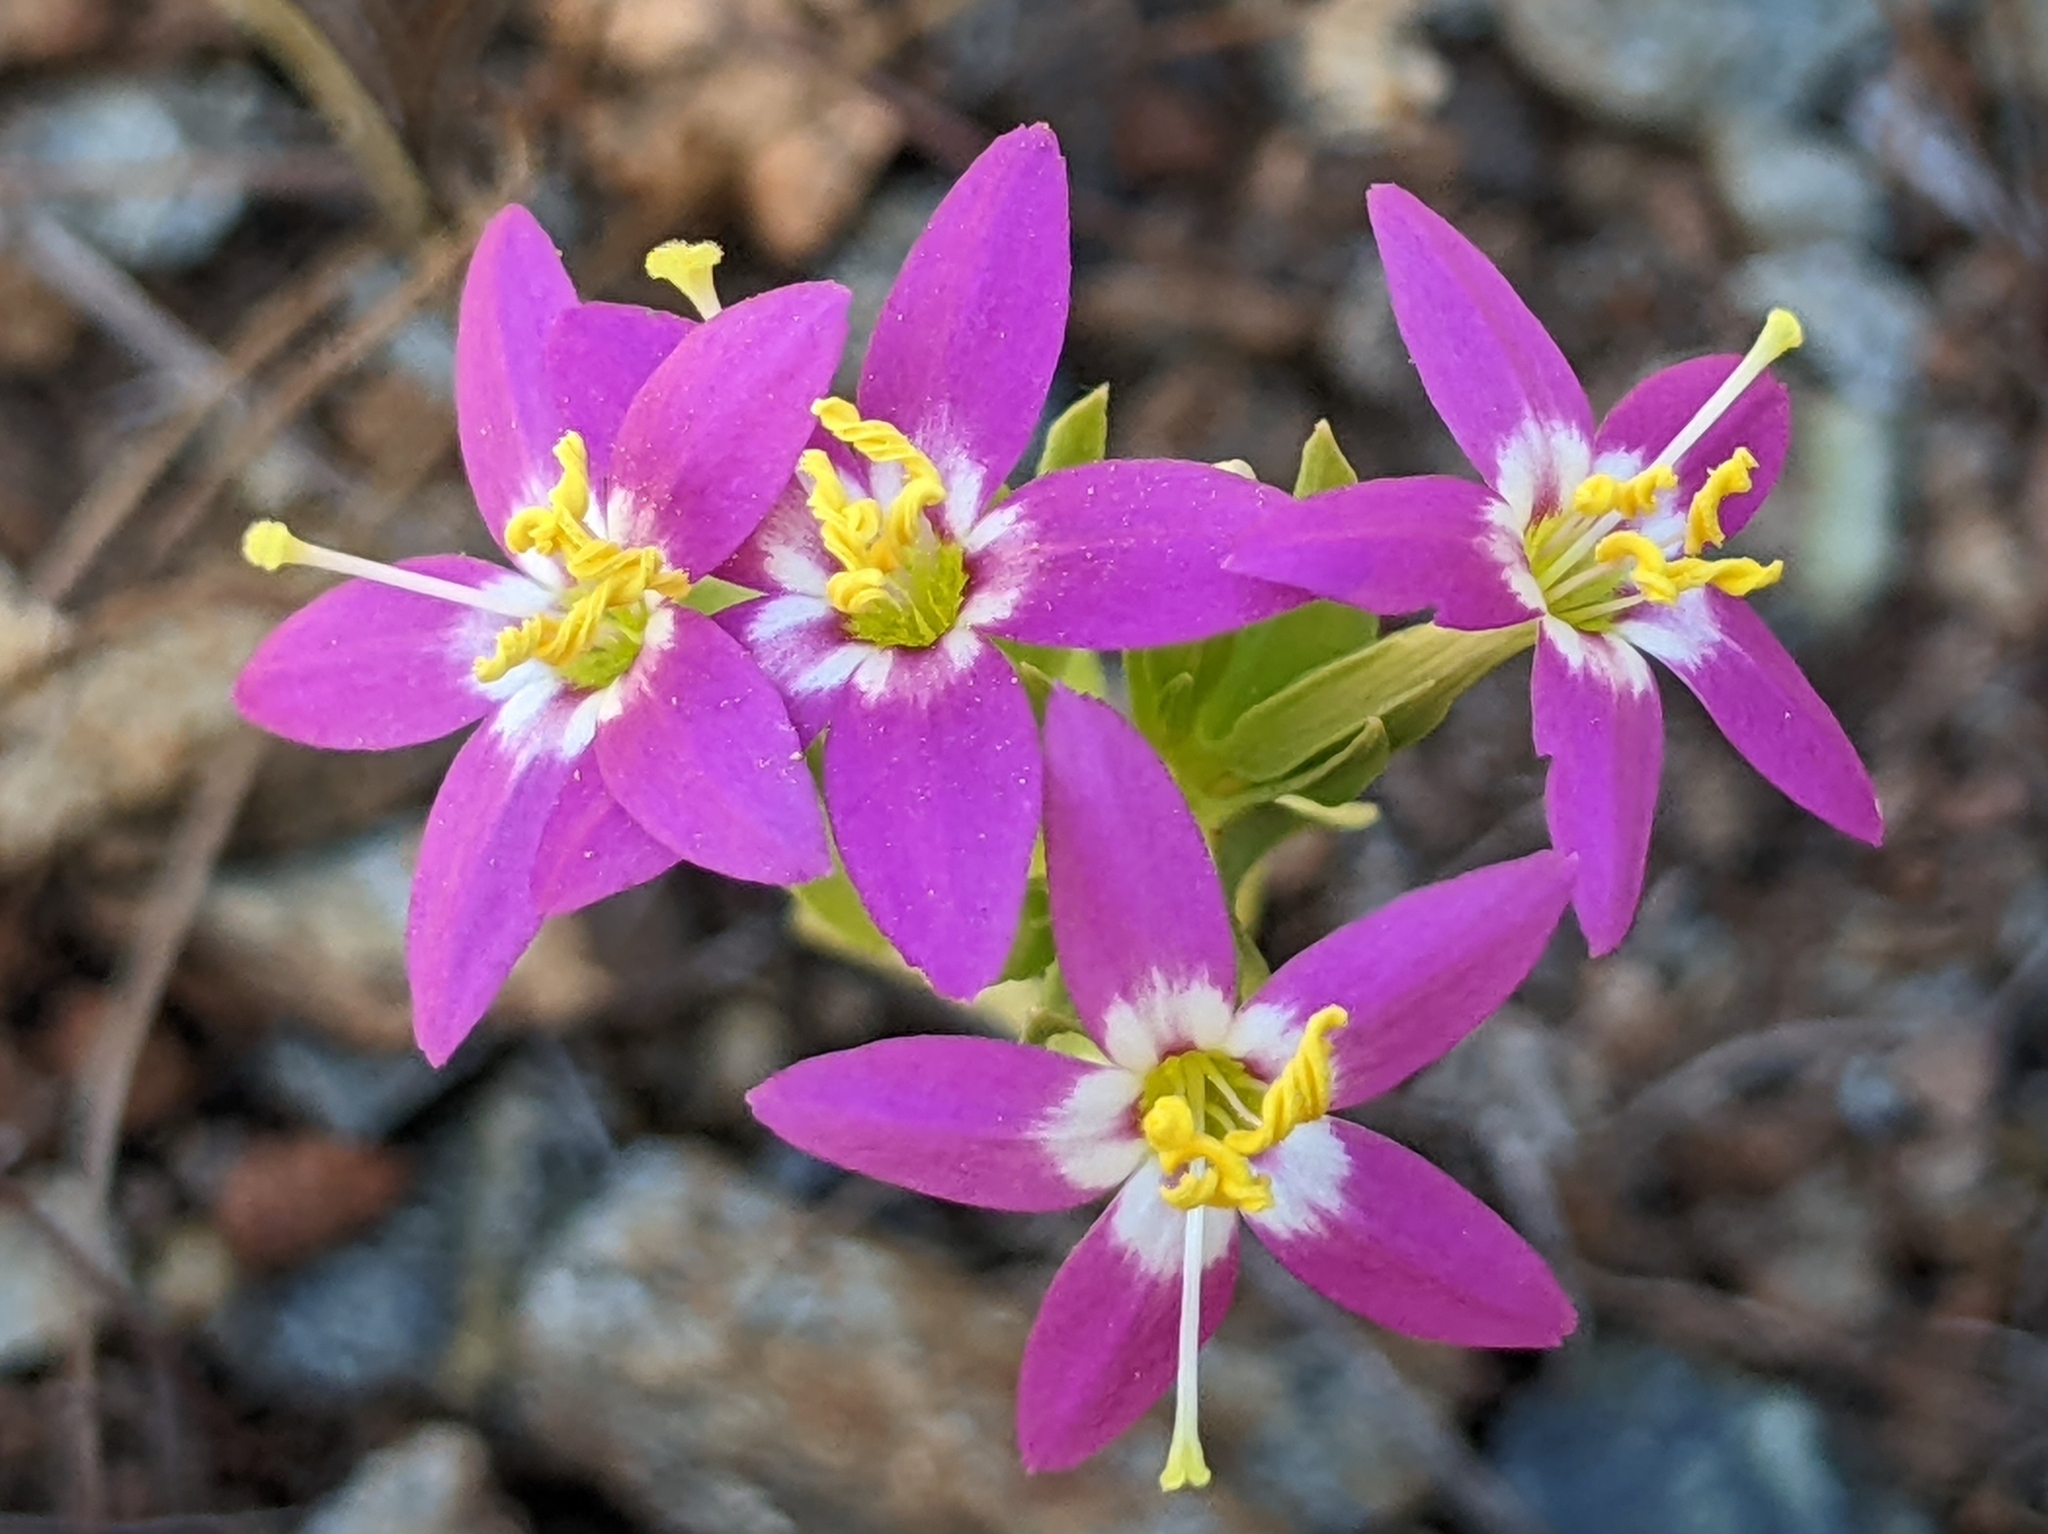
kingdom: Plantae
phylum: Tracheophyta
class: Magnoliopsida
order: Gentianales
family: Gentianaceae
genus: Zeltnera
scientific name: Zeltnera venusta
